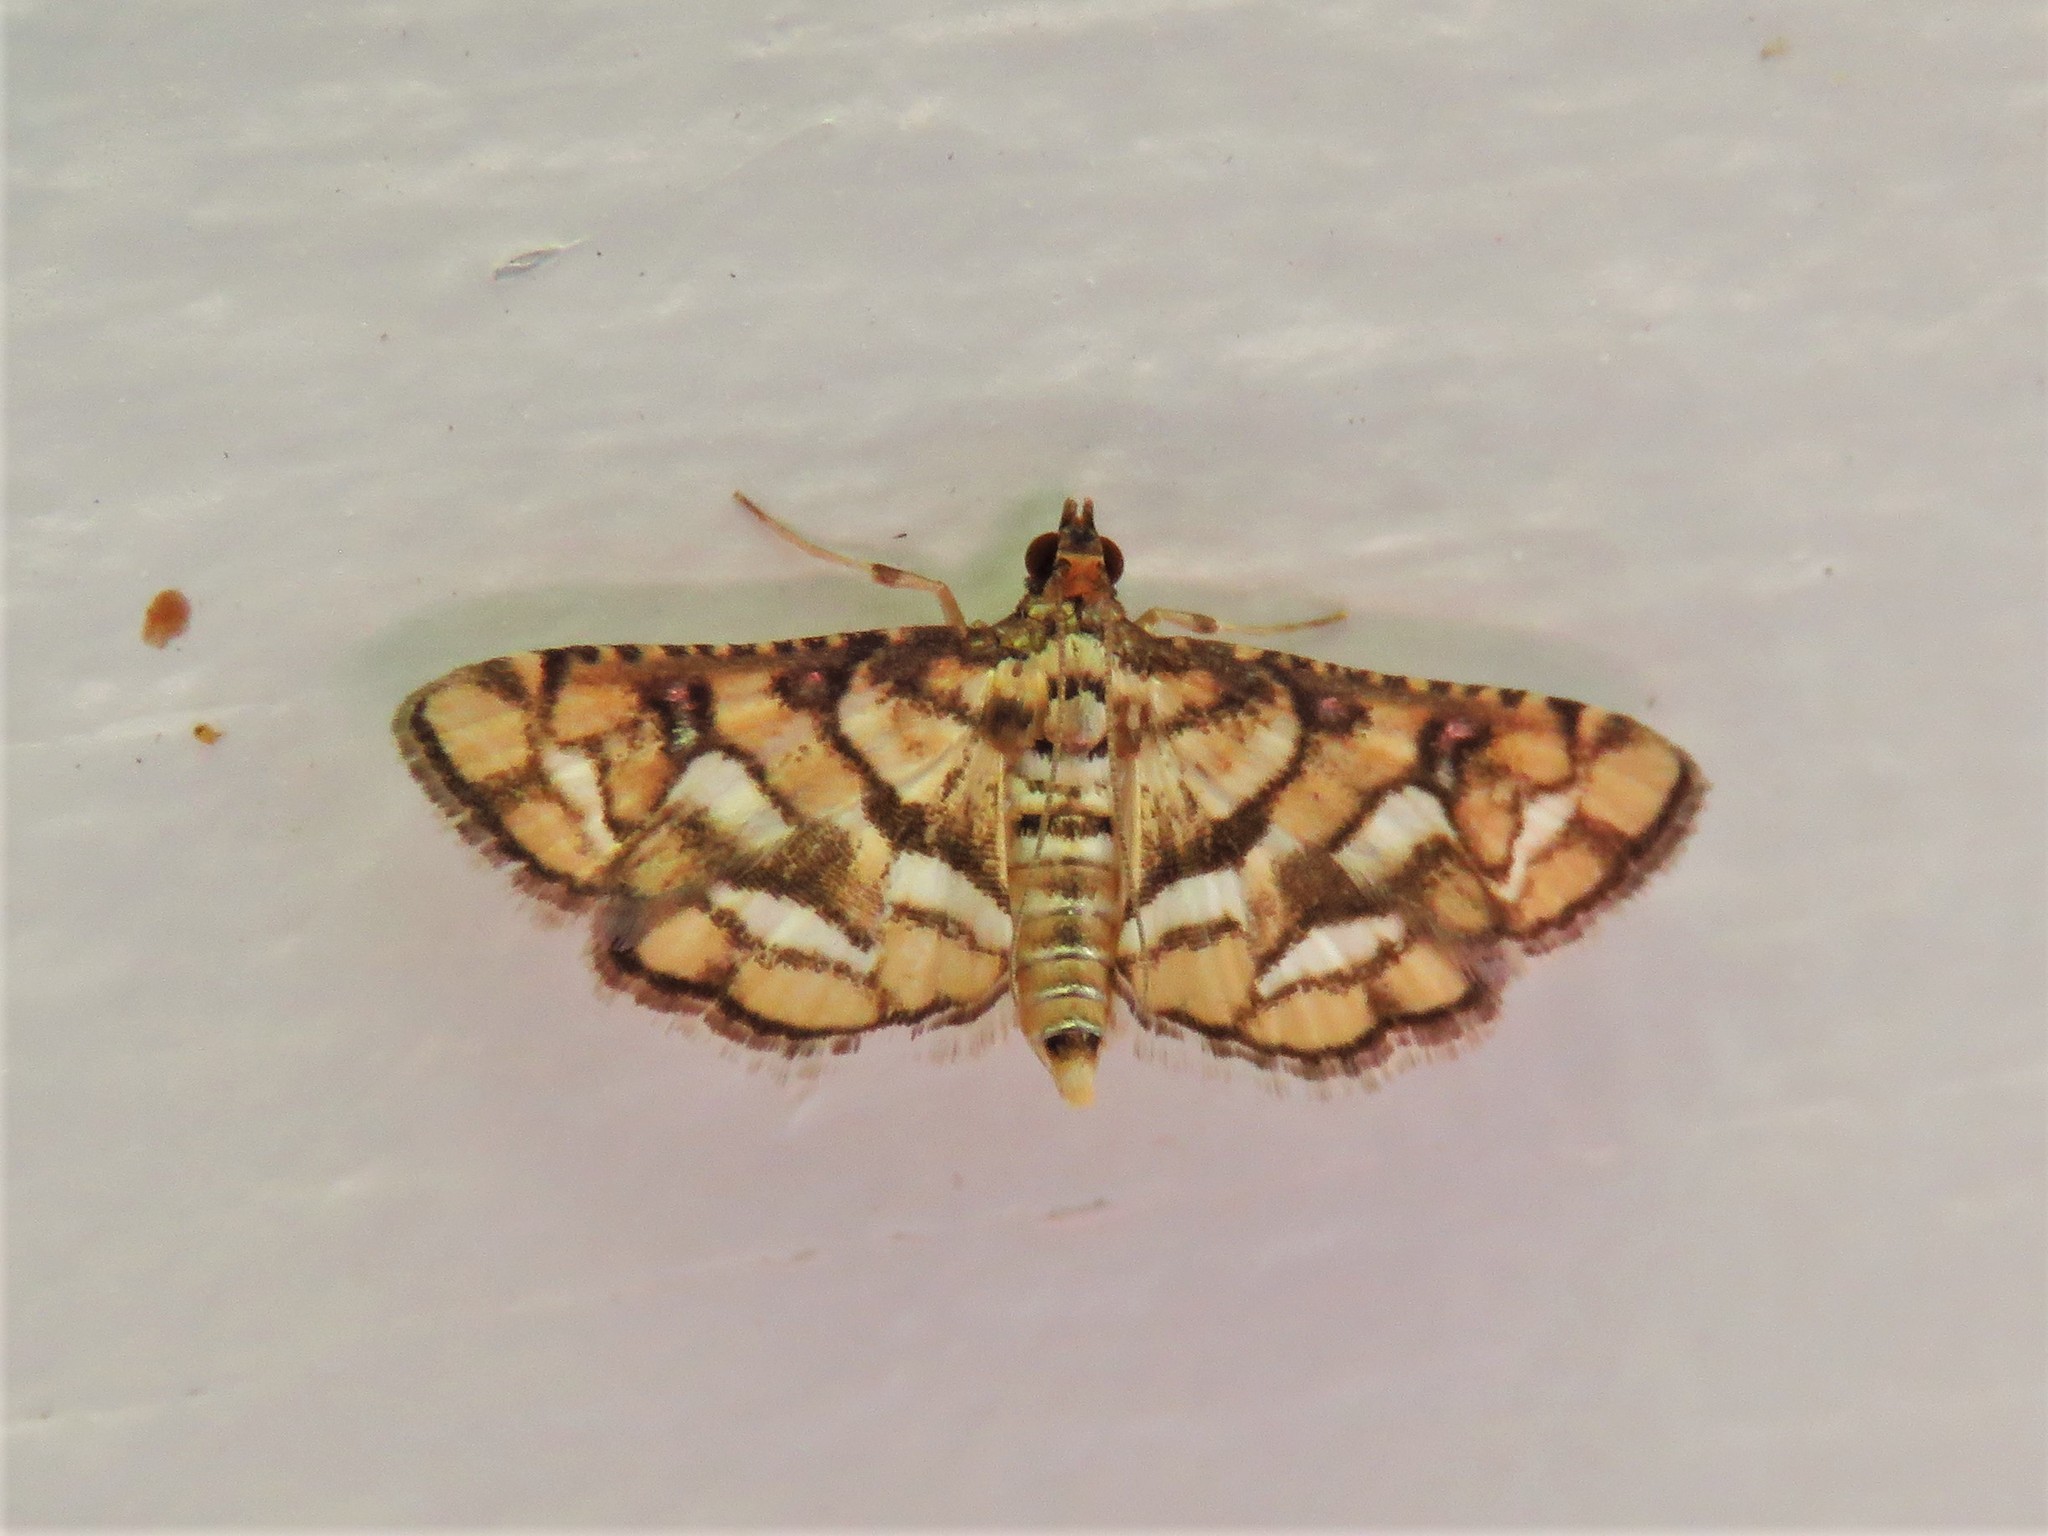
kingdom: Animalia
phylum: Arthropoda
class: Insecta
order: Lepidoptera
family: Crambidae
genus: Hileithia
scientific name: Hileithia magualis
